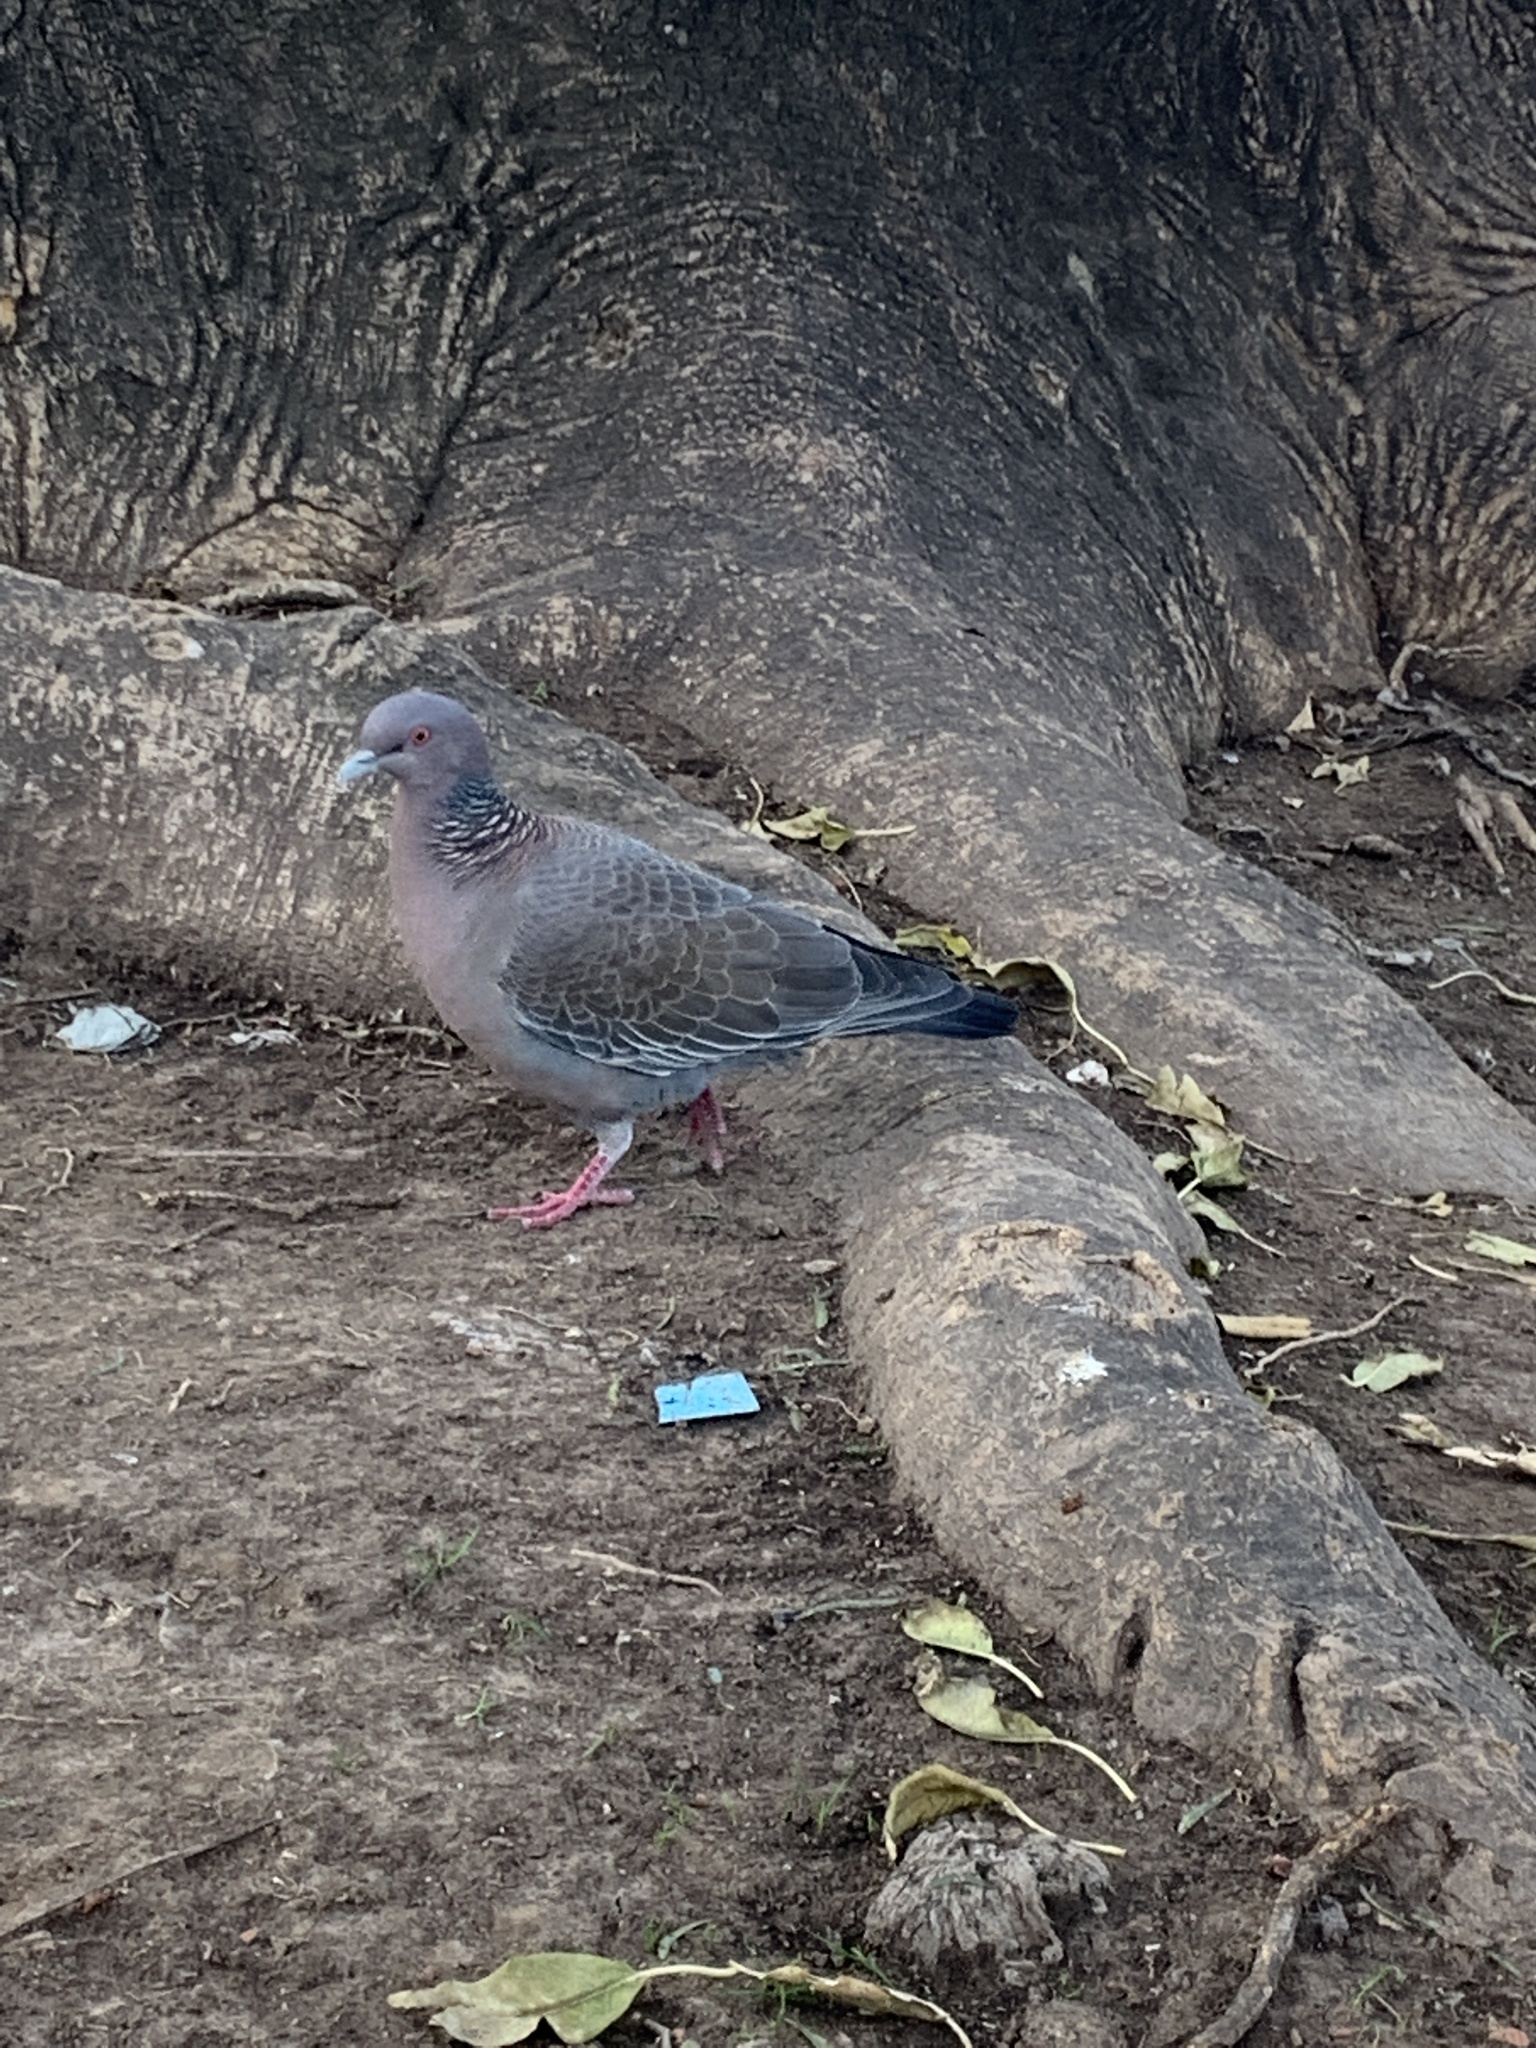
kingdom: Animalia
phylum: Chordata
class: Aves
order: Columbiformes
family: Columbidae
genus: Patagioenas
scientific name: Patagioenas picazuro
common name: Picazuro pigeon
